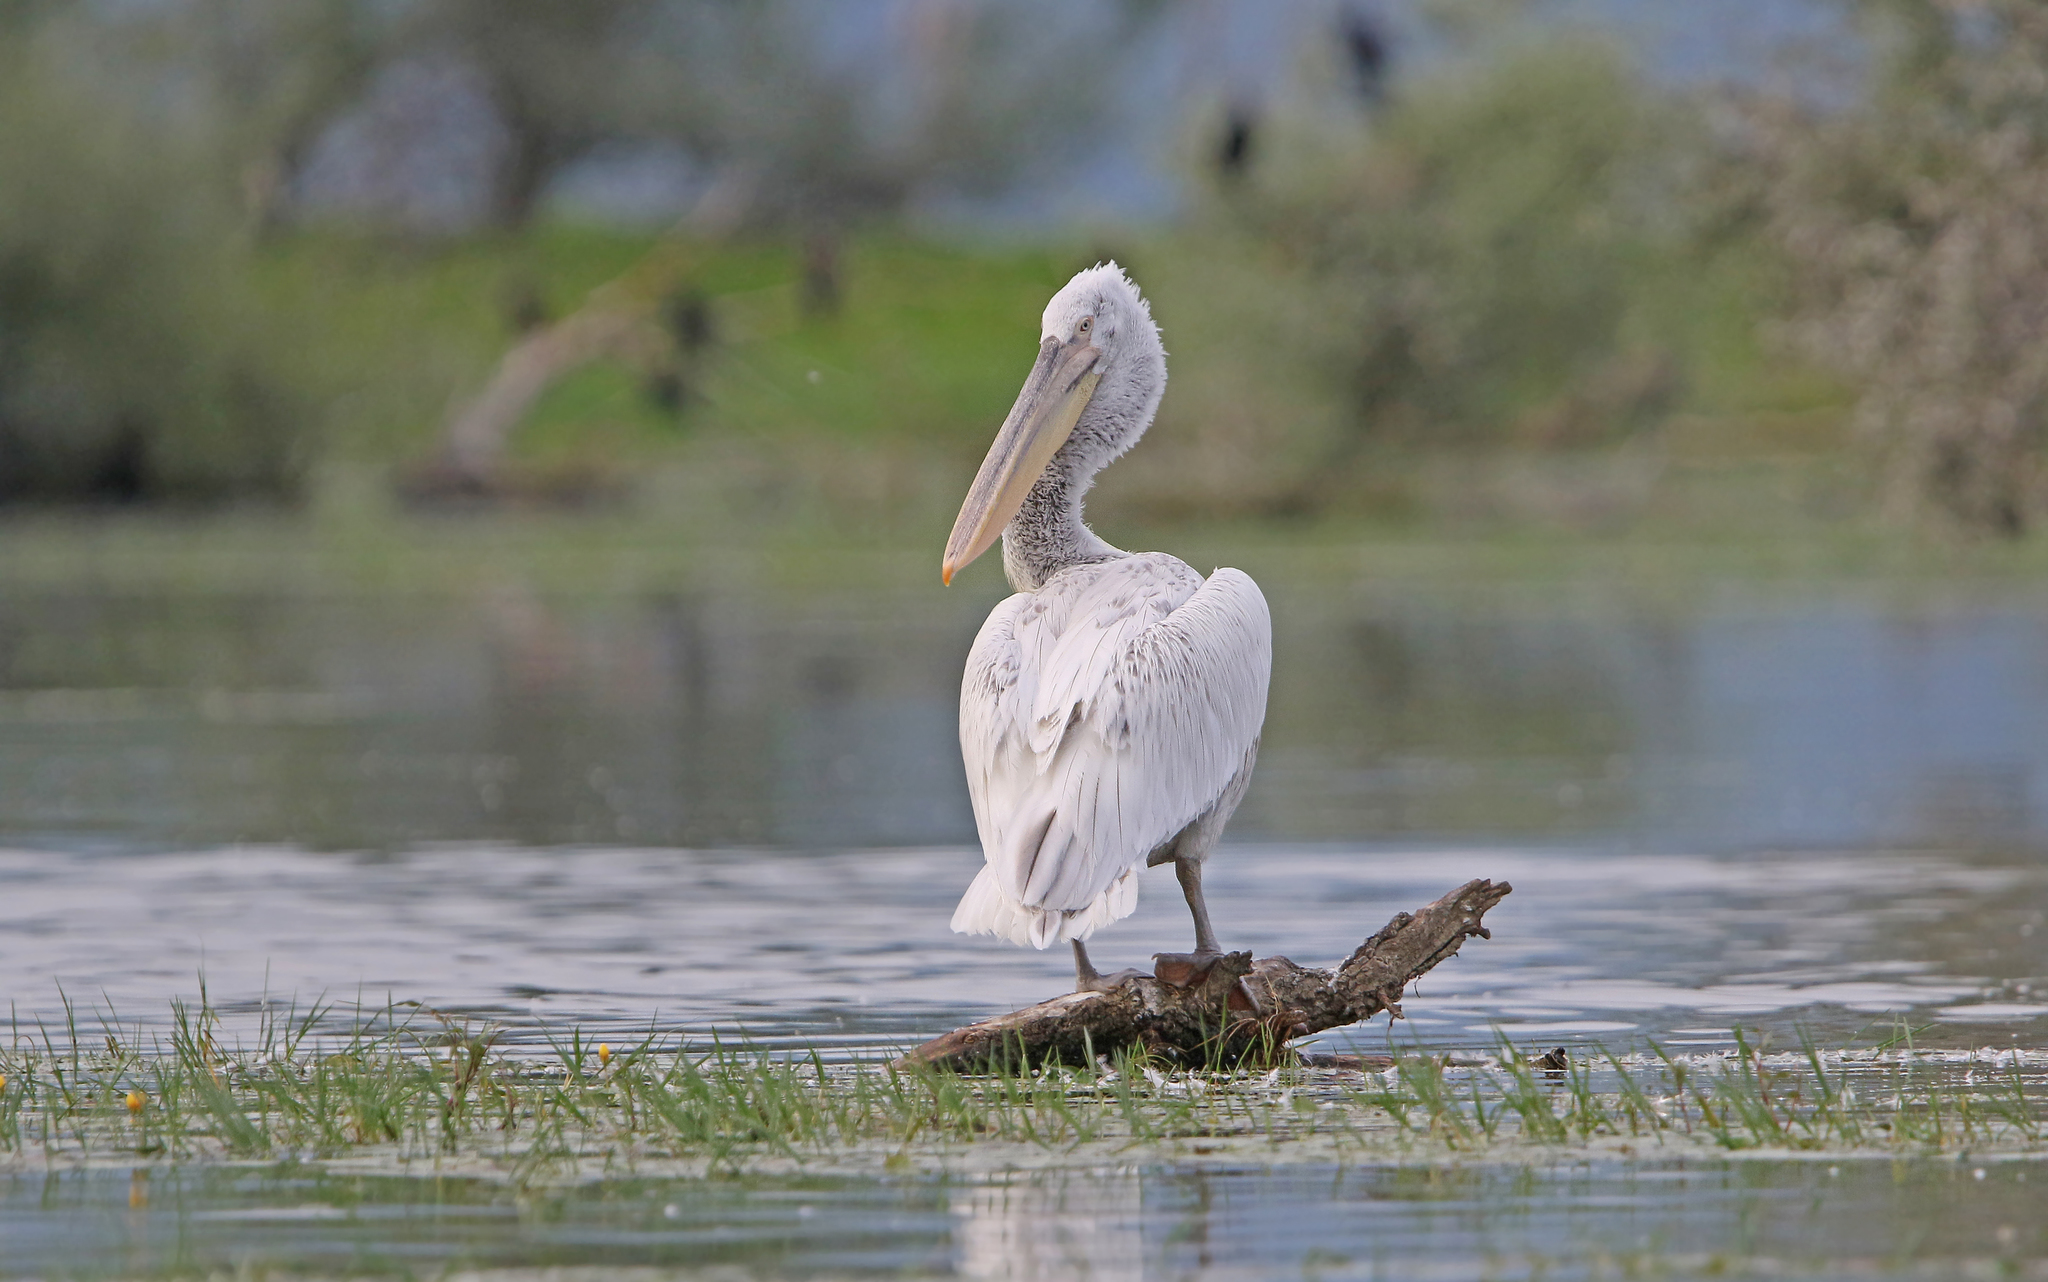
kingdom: Animalia
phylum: Chordata
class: Aves
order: Pelecaniformes
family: Pelecanidae
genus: Pelecanus
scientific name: Pelecanus crispus
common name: Dalmatian pelican
